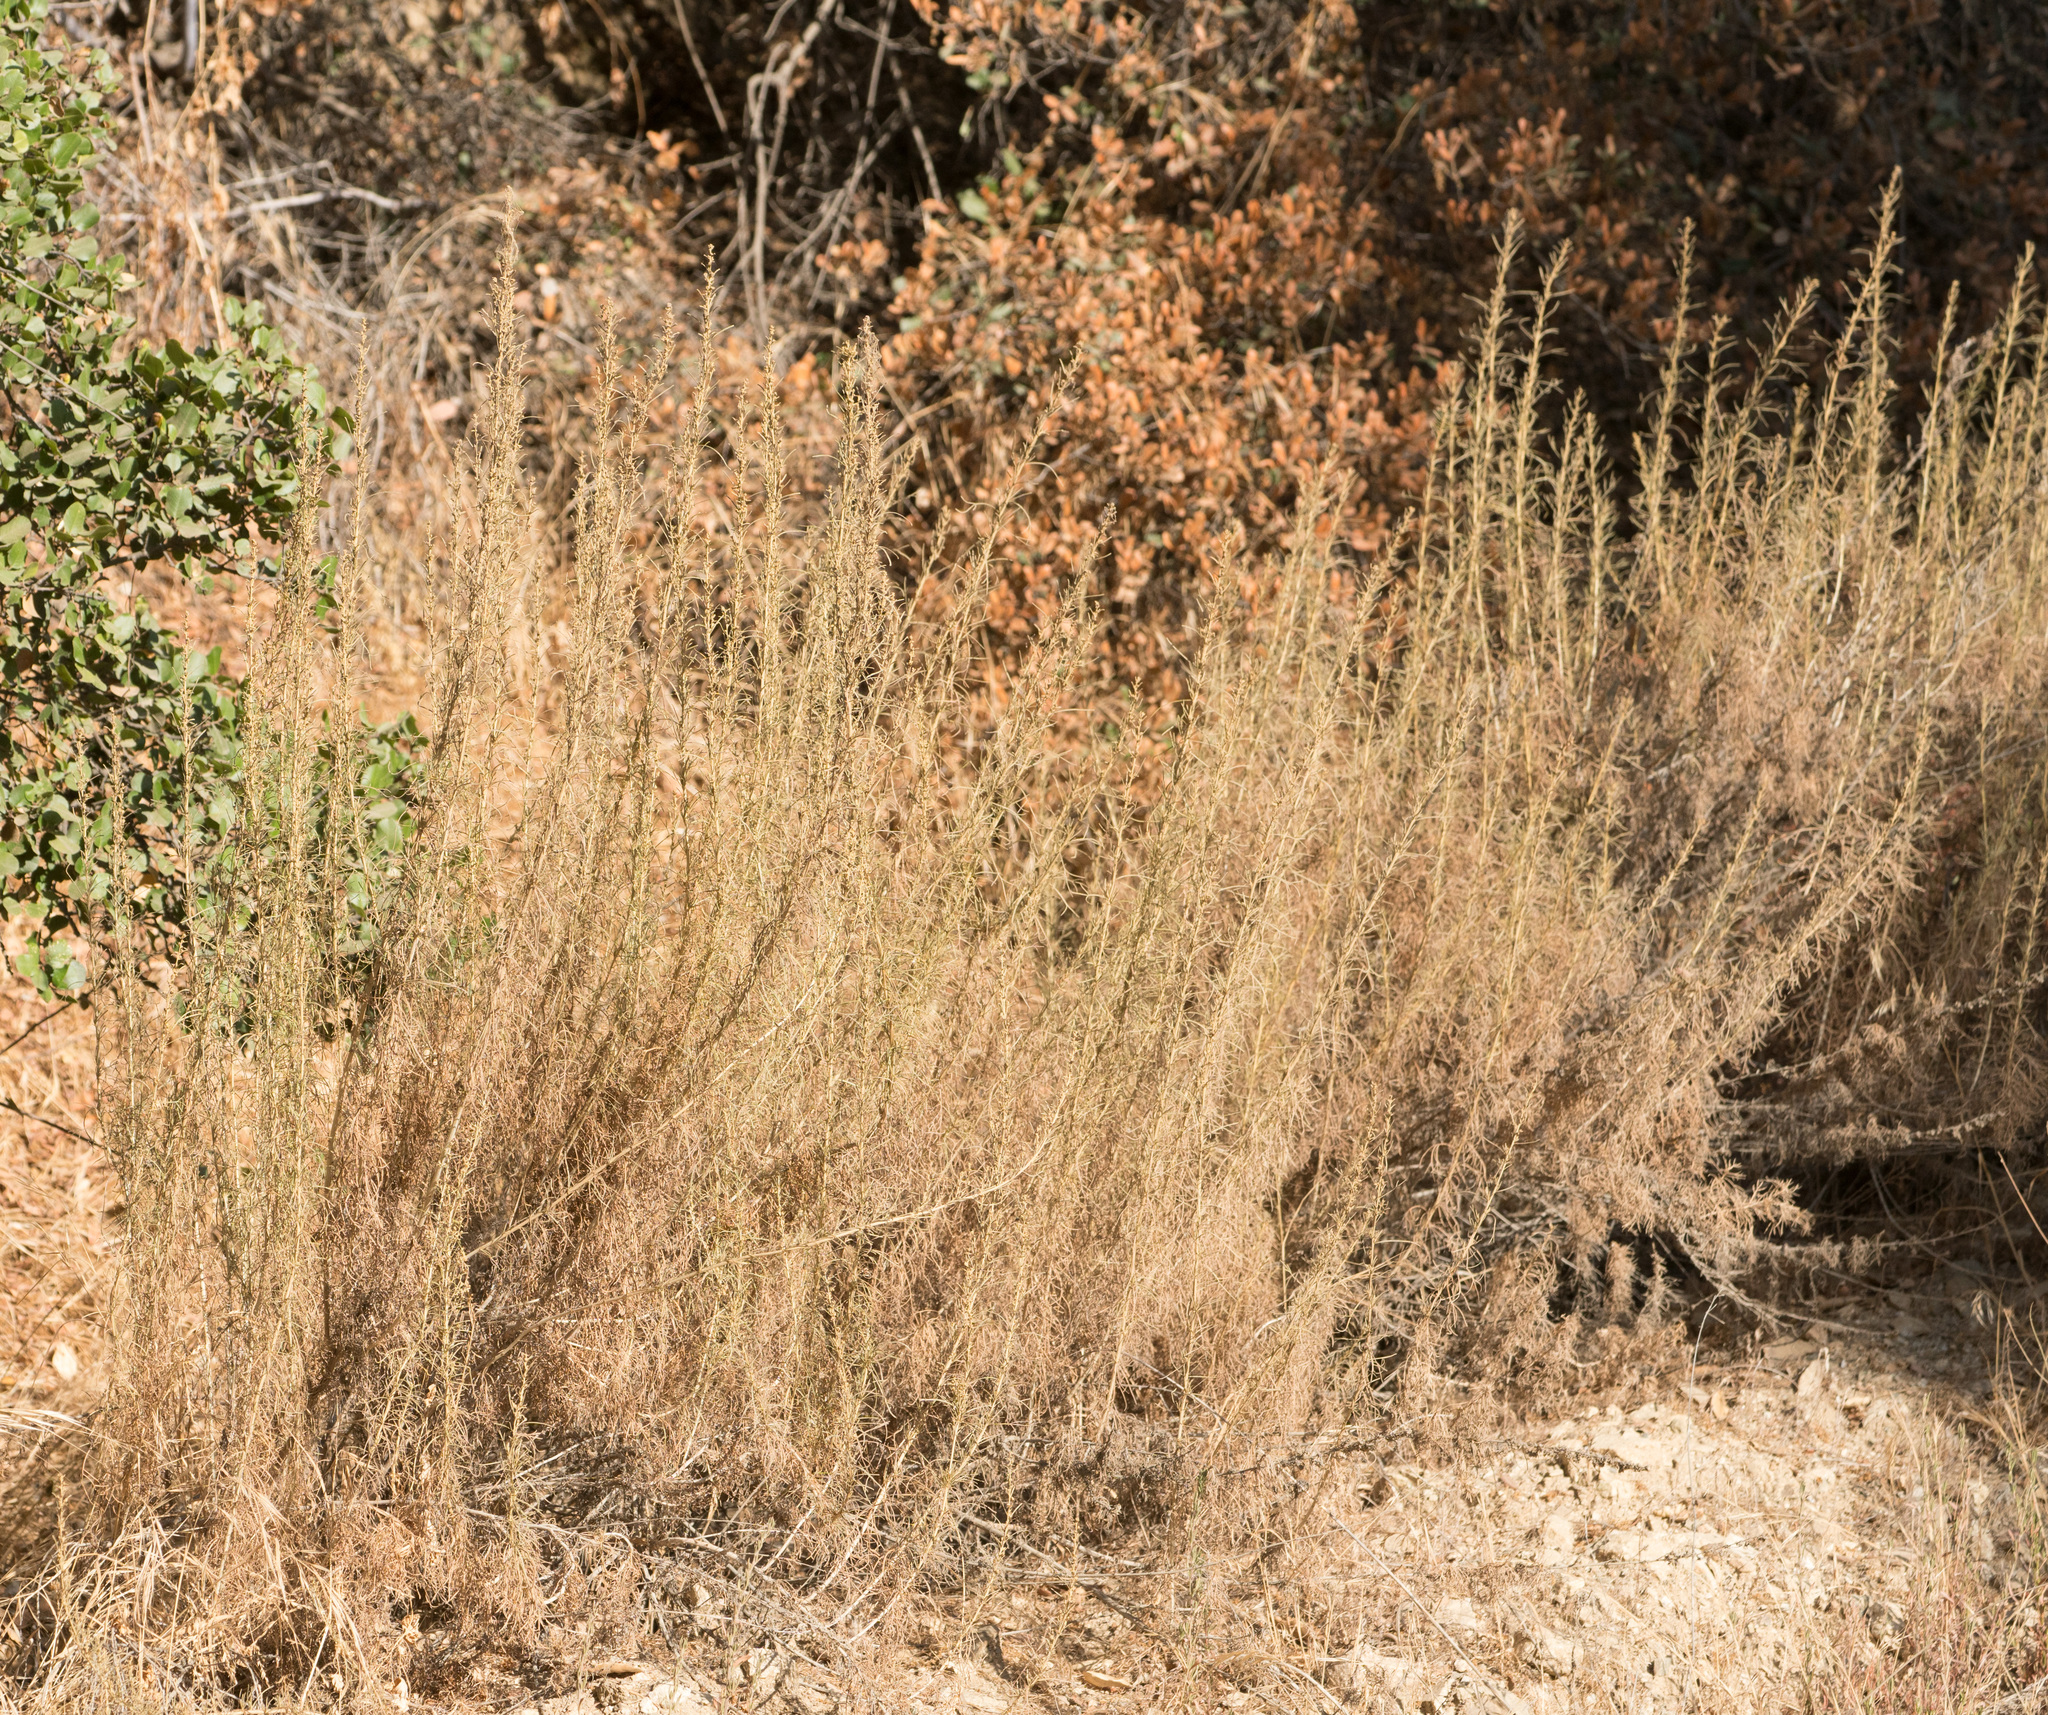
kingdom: Plantae
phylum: Tracheophyta
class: Magnoliopsida
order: Asterales
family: Asteraceae
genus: Artemisia
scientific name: Artemisia californica
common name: California sagebrush
